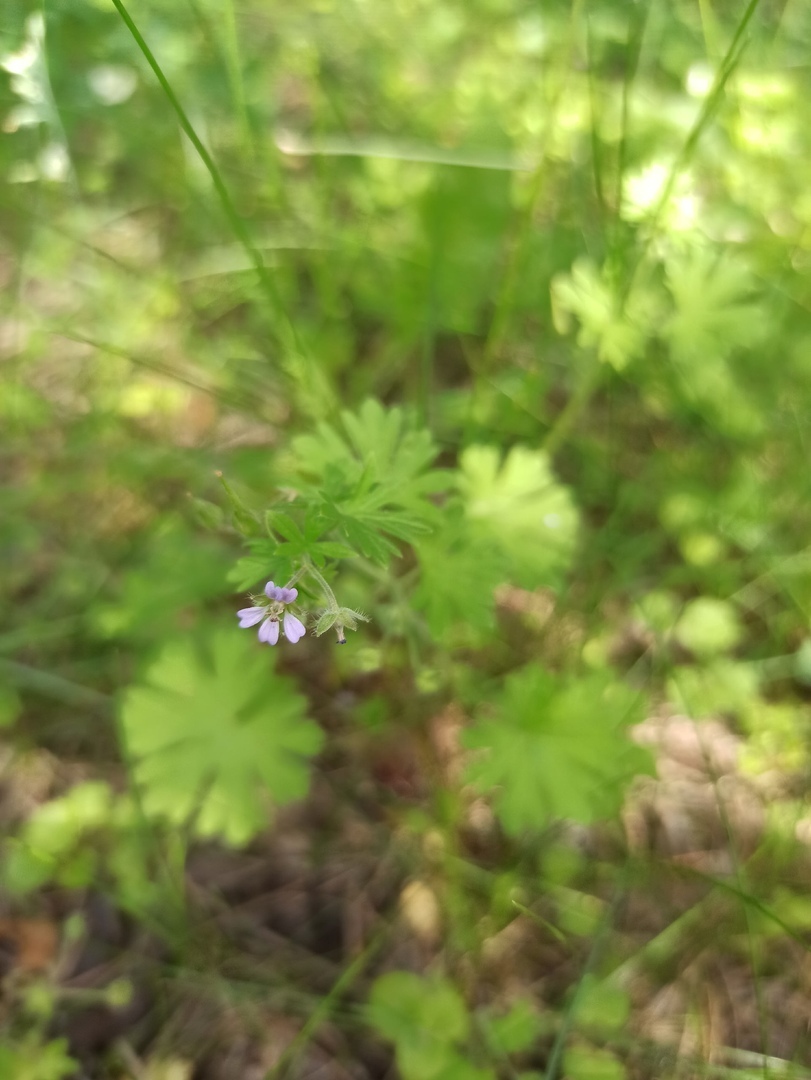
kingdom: Plantae
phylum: Tracheophyta
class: Magnoliopsida
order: Geraniales
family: Geraniaceae
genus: Geranium
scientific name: Geranium pusillum
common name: Small geranium
